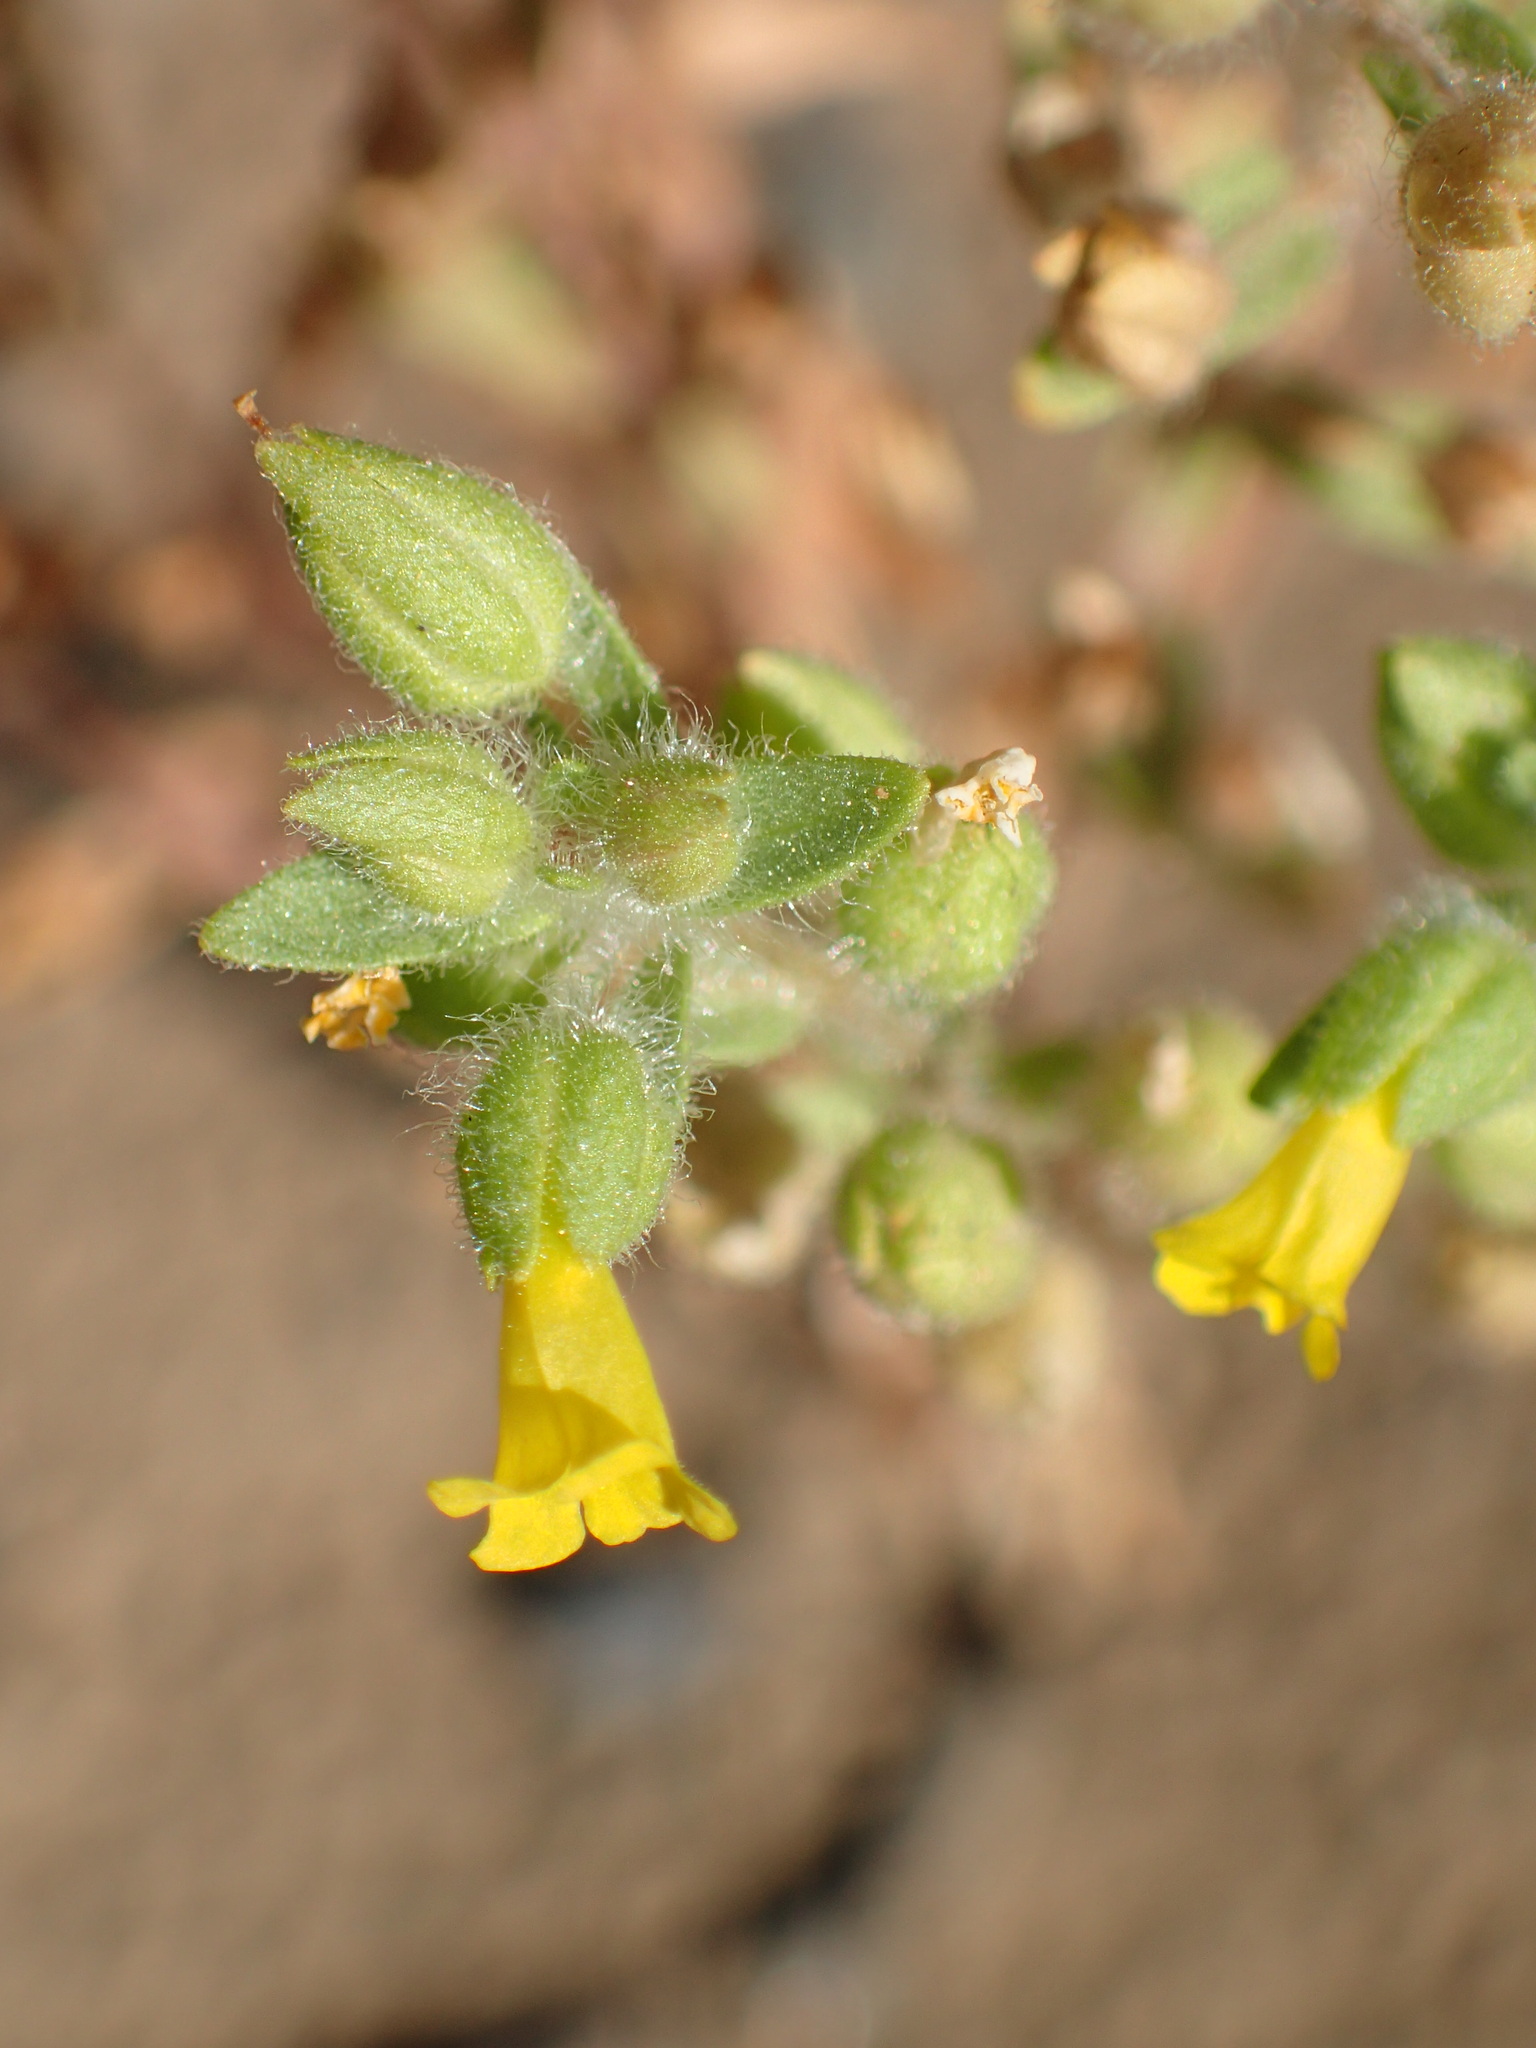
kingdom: Plantae
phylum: Tracheophyta
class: Magnoliopsida
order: Lamiales
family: Phrymaceae
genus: Mimetanthe
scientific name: Mimetanthe pilosa
